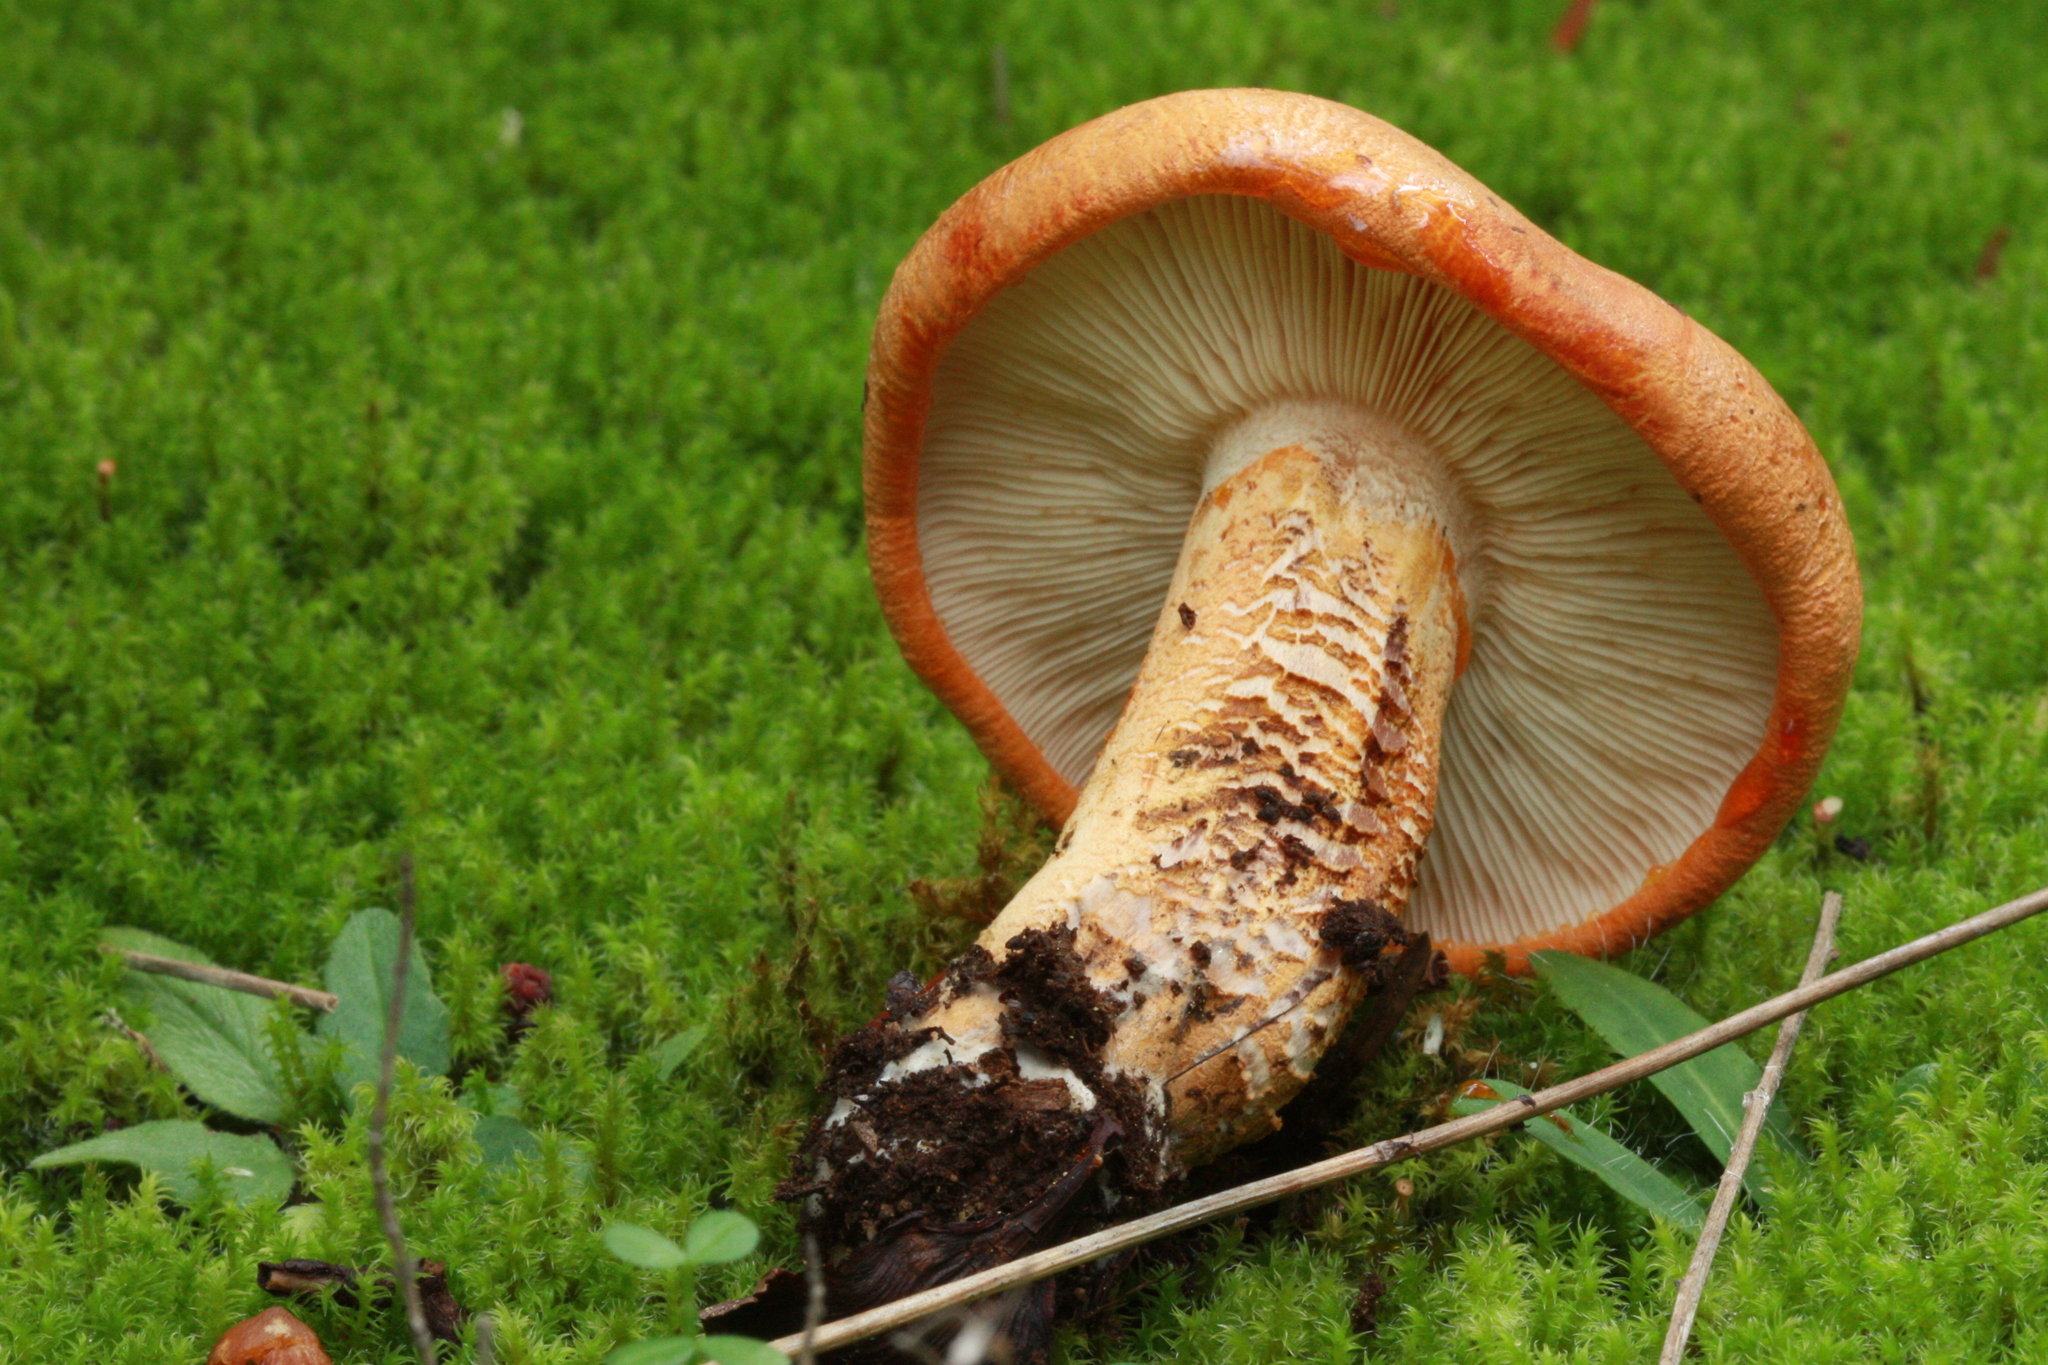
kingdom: Fungi
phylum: Basidiomycota
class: Agaricomycetes
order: Agaricales
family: Tricholomataceae
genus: Tricholoma
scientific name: Tricholoma aurantium
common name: Orange knight
